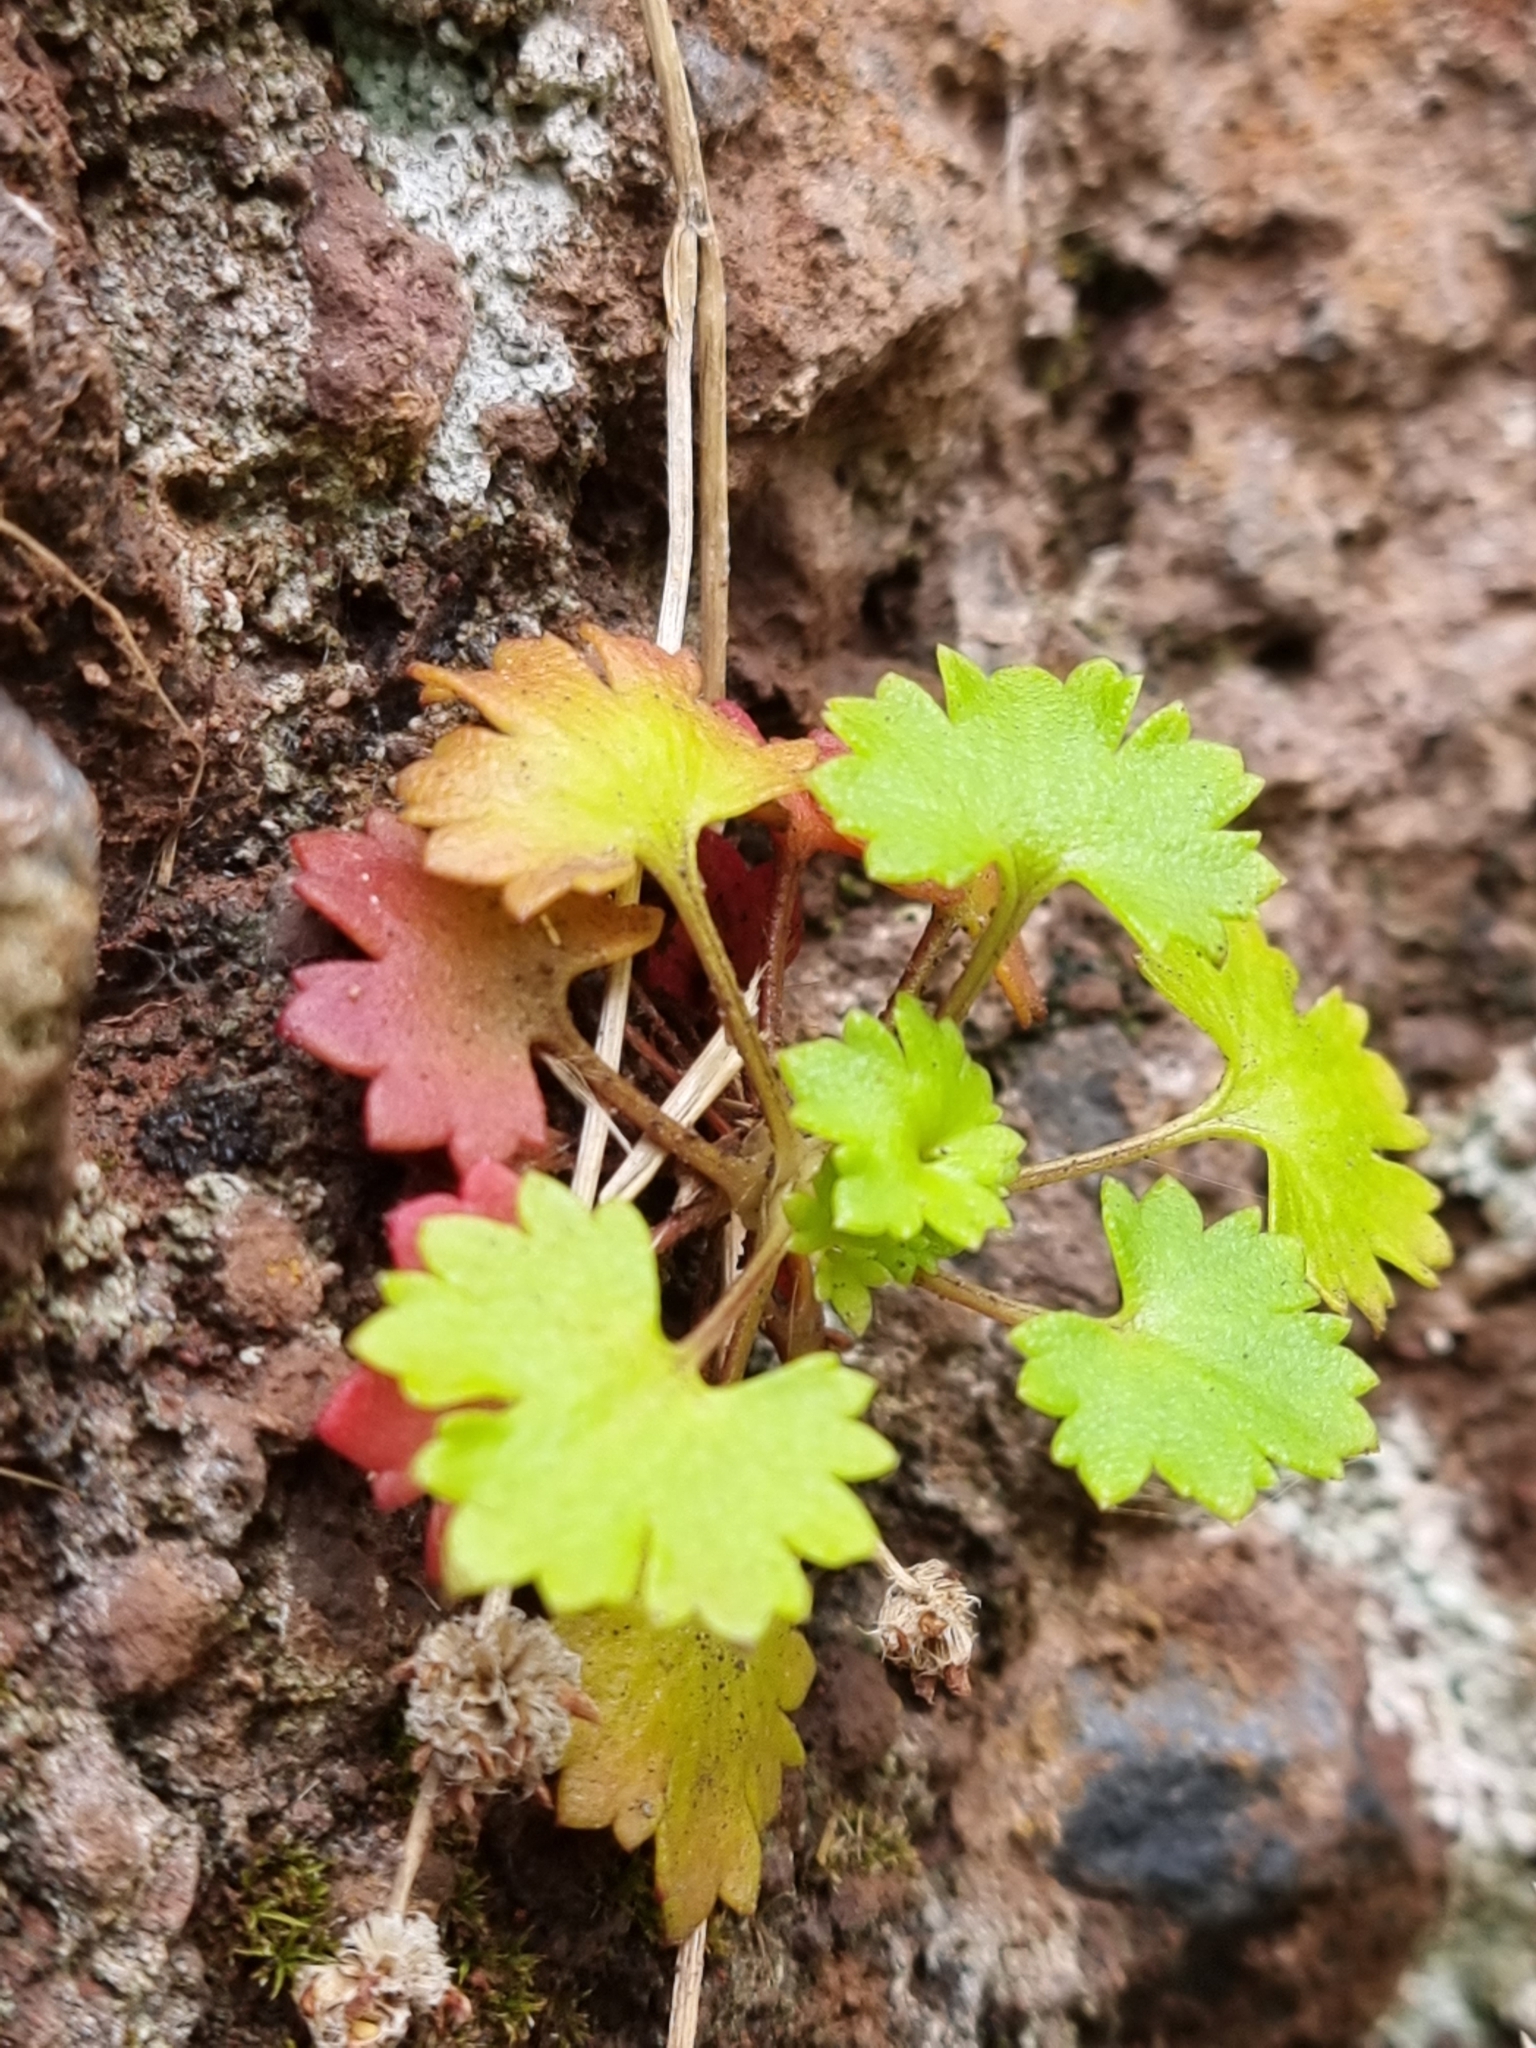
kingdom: Plantae
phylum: Tracheophyta
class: Magnoliopsida
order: Saxifragales
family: Saxifragaceae
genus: Saxifraga
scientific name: Saxifraga maderensis
